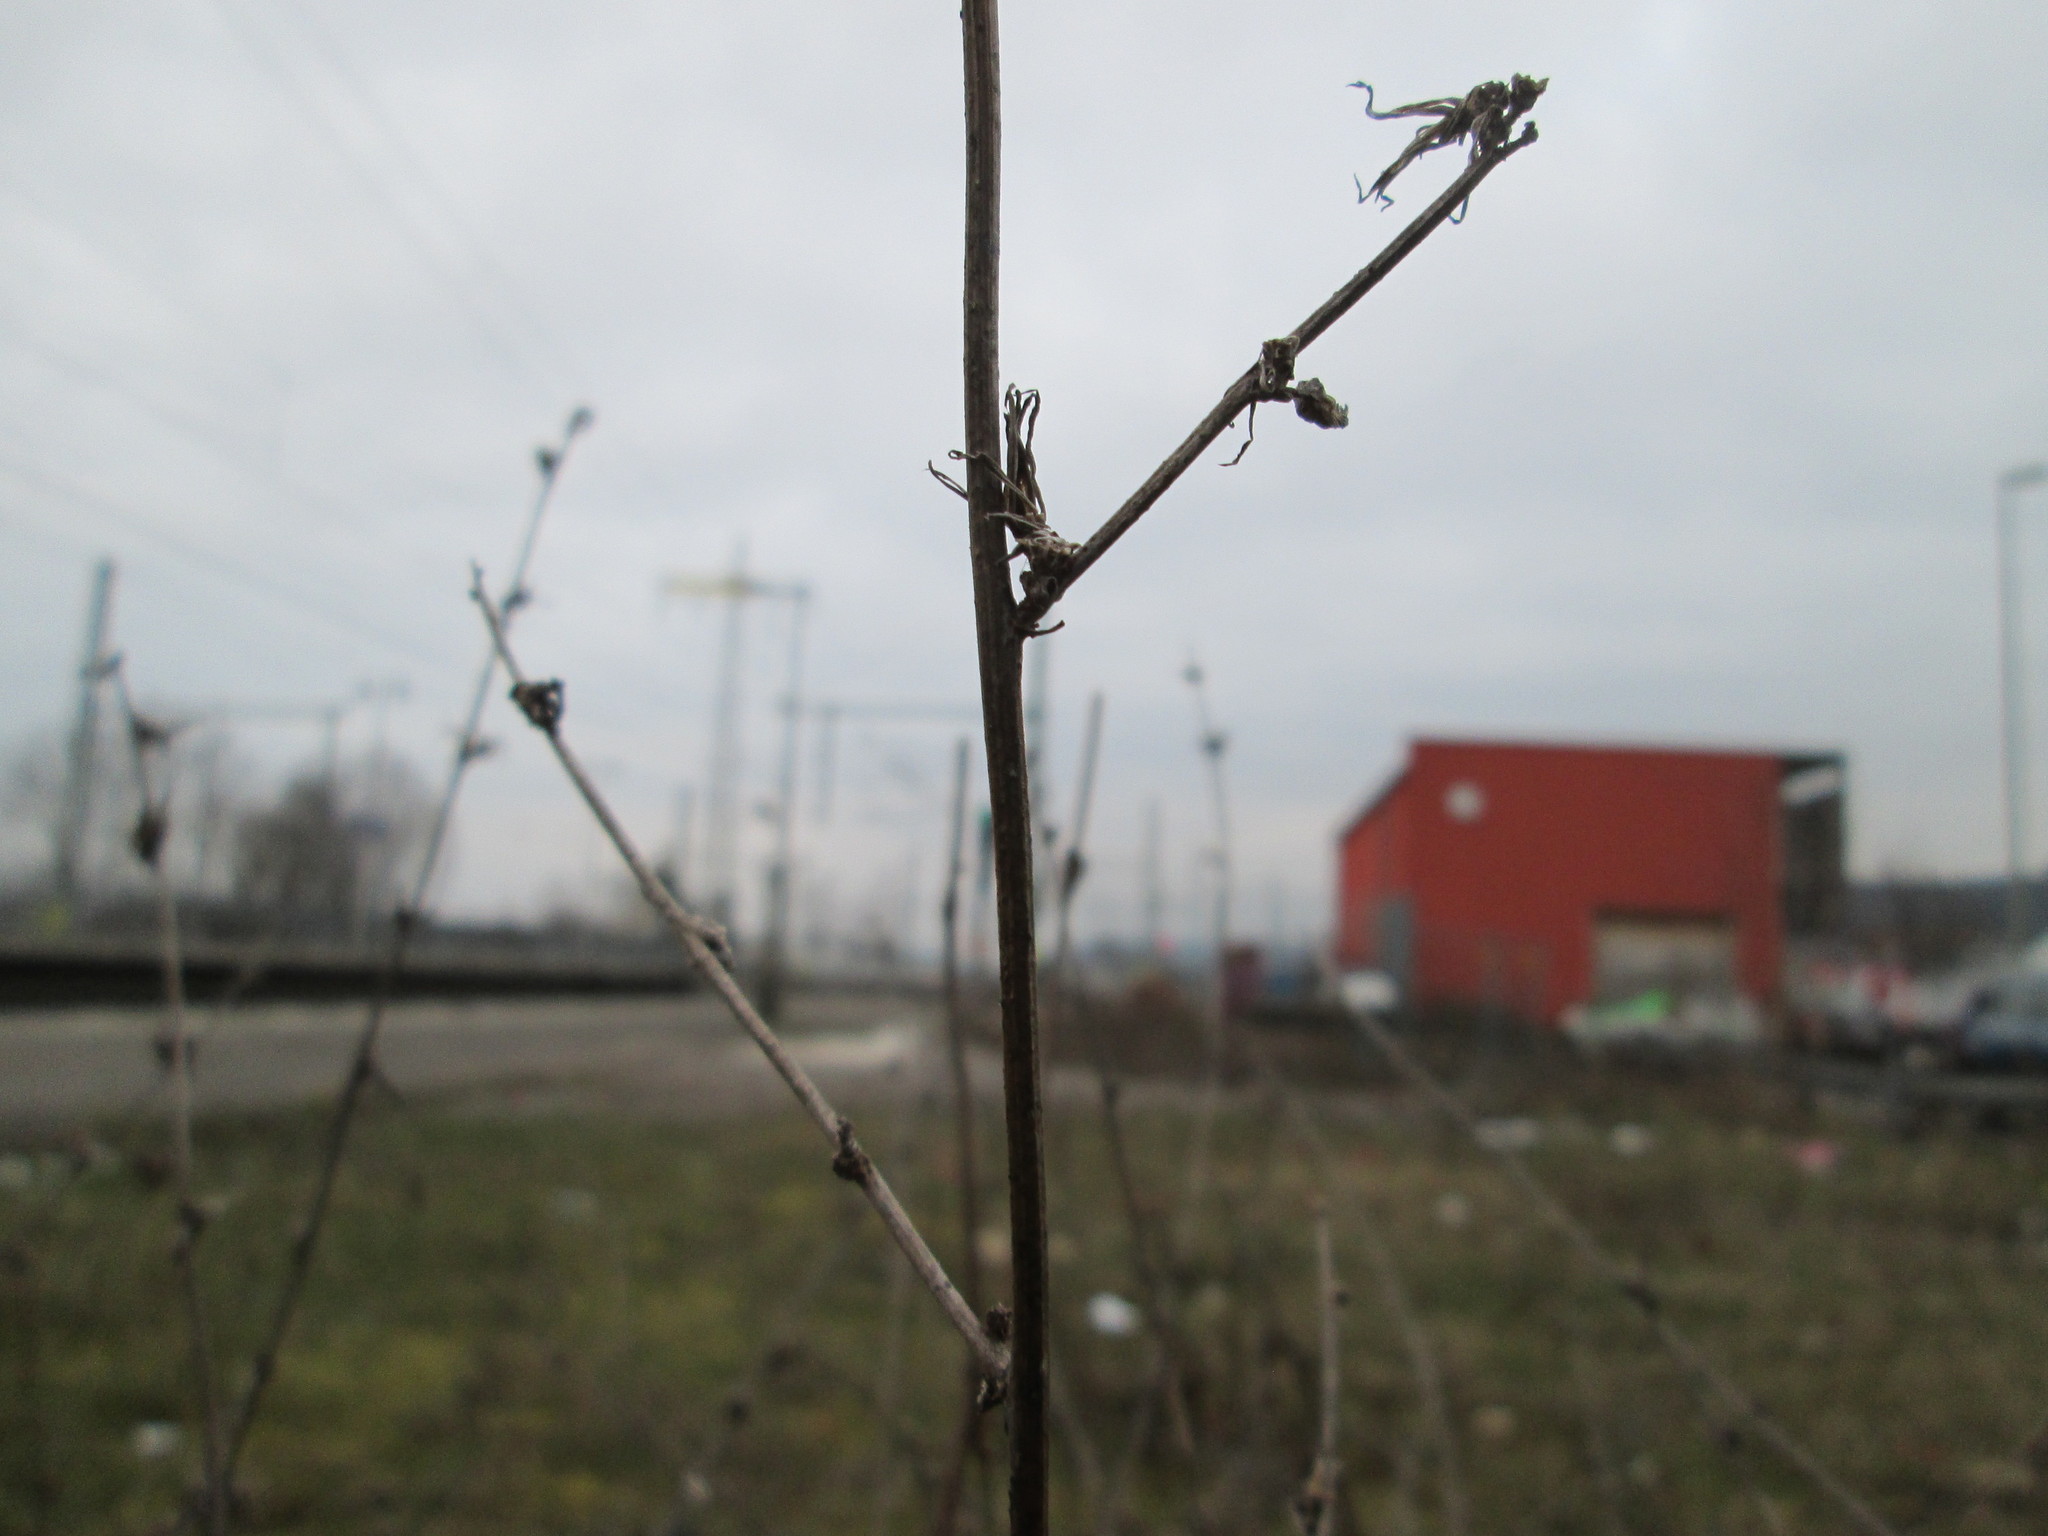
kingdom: Plantae
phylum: Tracheophyta
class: Magnoliopsida
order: Asterales
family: Asteraceae
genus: Chondrilla
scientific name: Chondrilla juncea
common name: Skeleton weed
